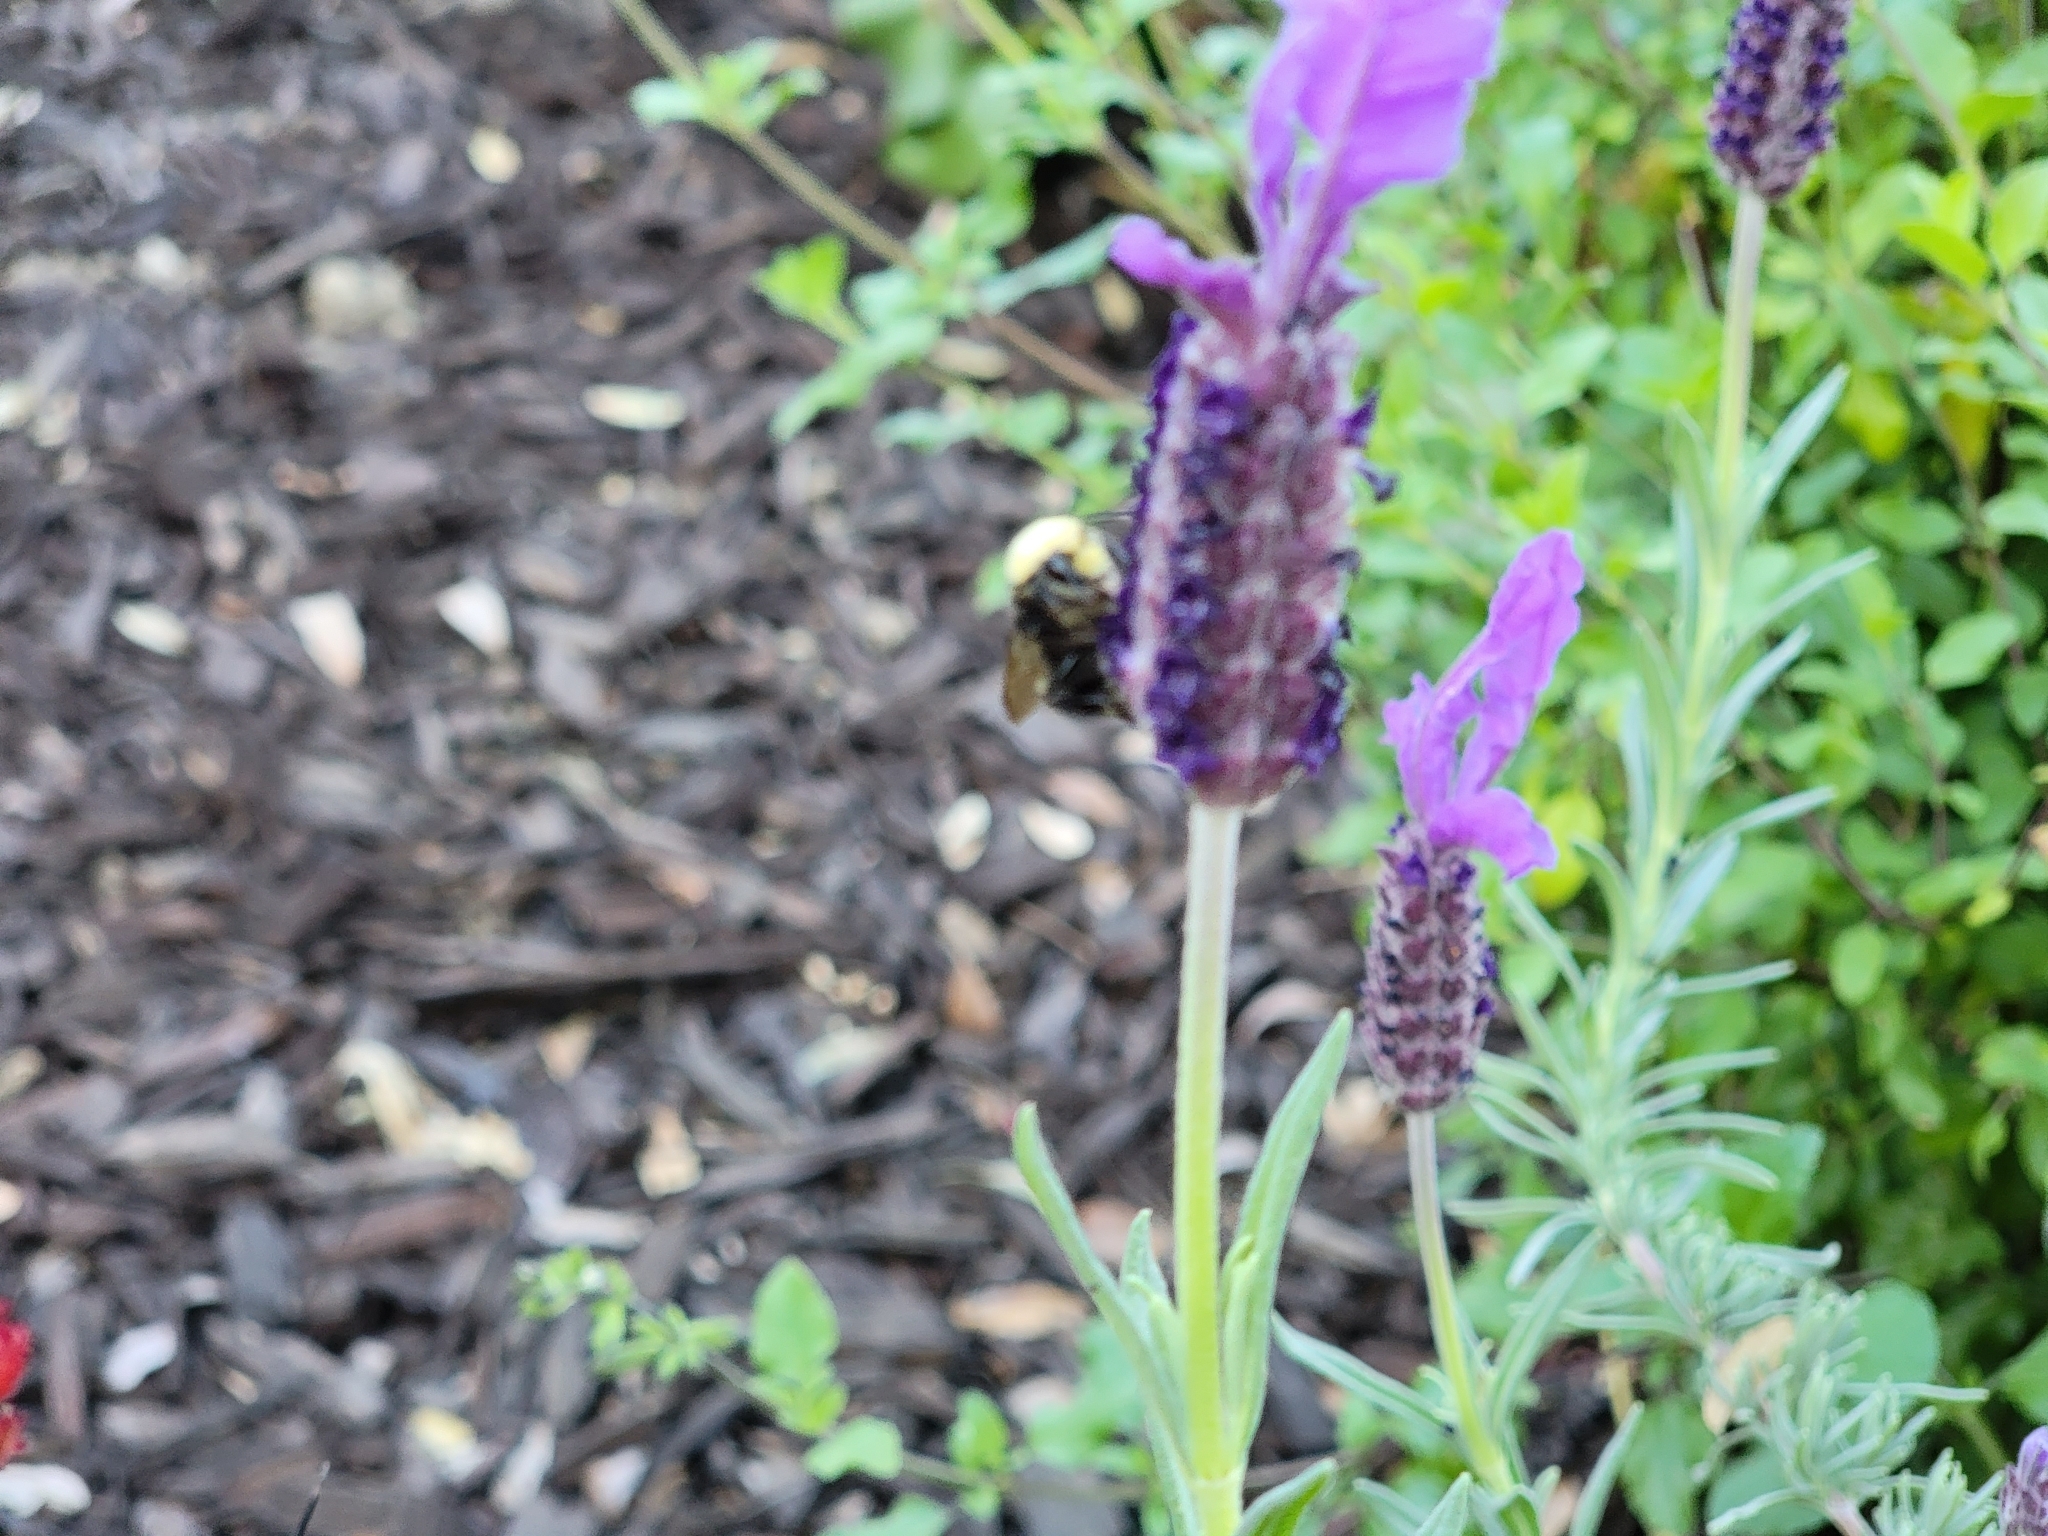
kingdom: Animalia
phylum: Arthropoda
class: Insecta
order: Hymenoptera
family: Apidae
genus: Pyrobombus
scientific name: Pyrobombus
